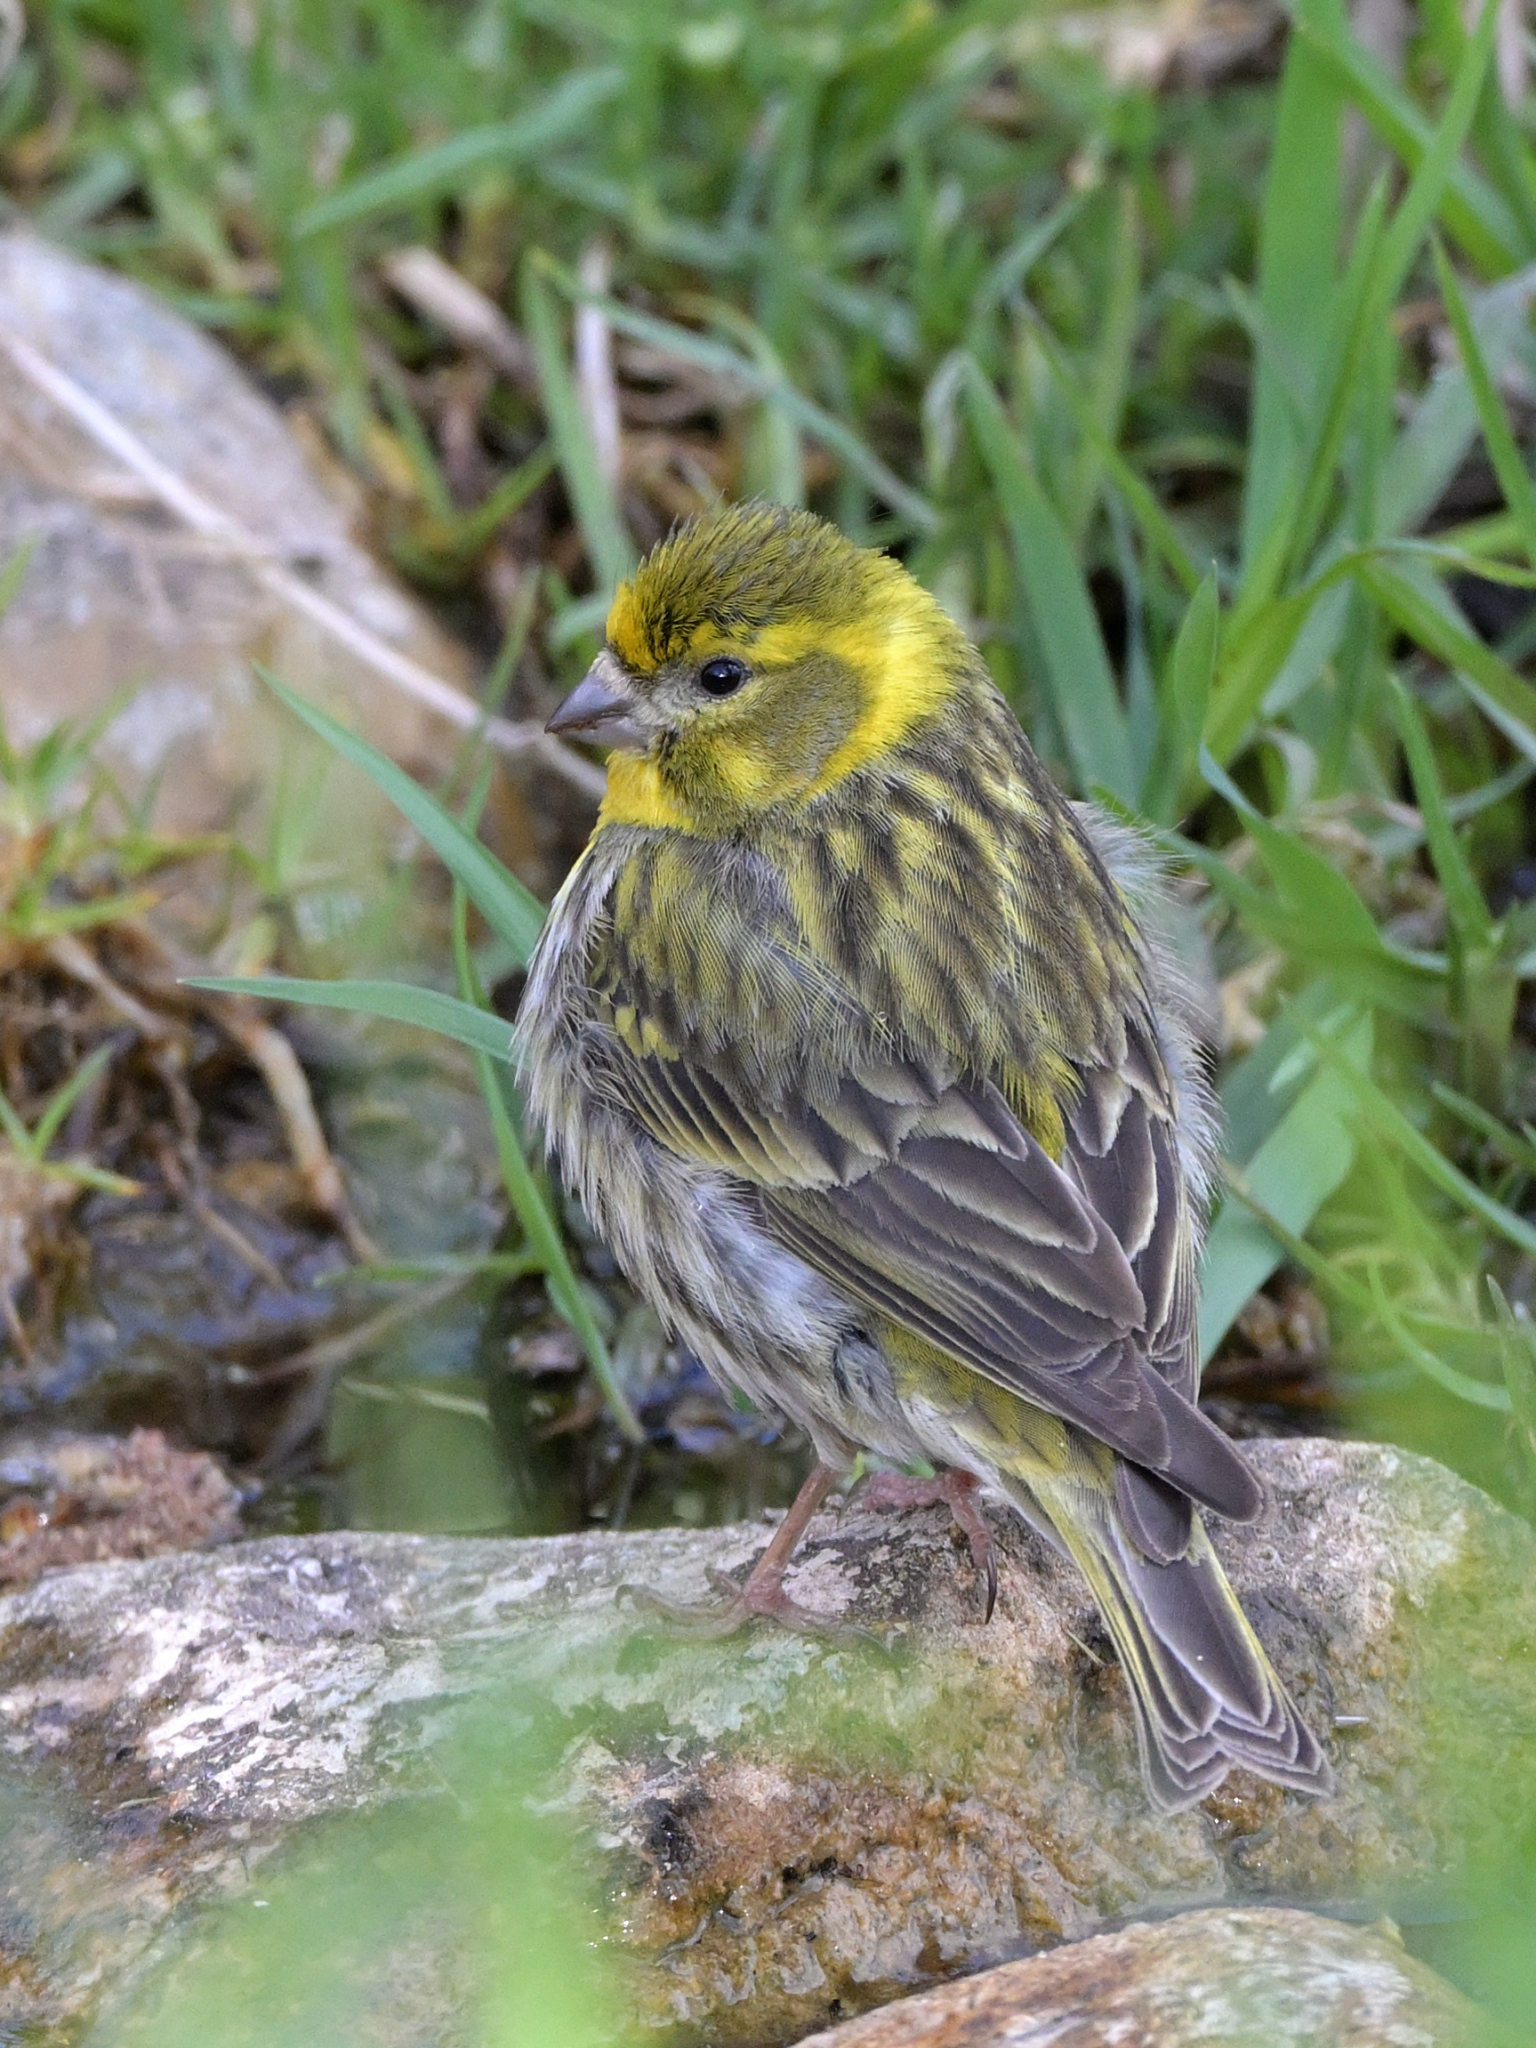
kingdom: Animalia
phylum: Chordata
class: Aves
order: Passeriformes
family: Fringillidae
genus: Serinus
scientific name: Serinus serinus
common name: European serin
